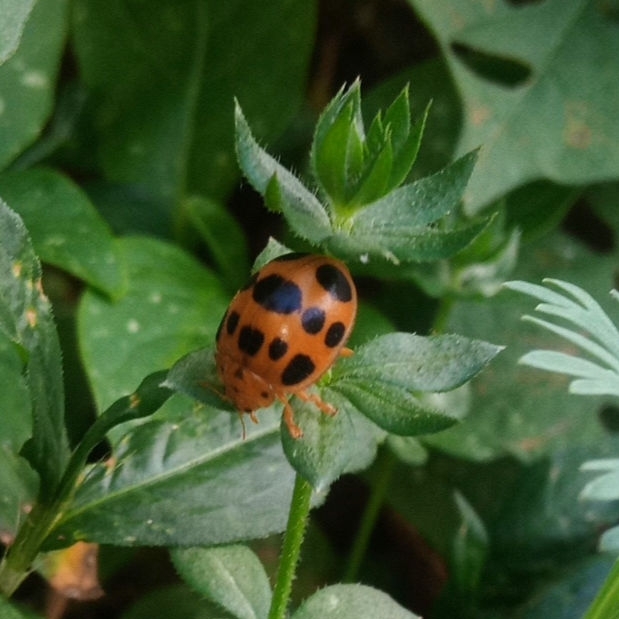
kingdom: Animalia
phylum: Arthropoda
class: Insecta
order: Coleoptera
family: Coccinellidae
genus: Epilachna
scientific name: Epilachna borealis
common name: Squash beetle
